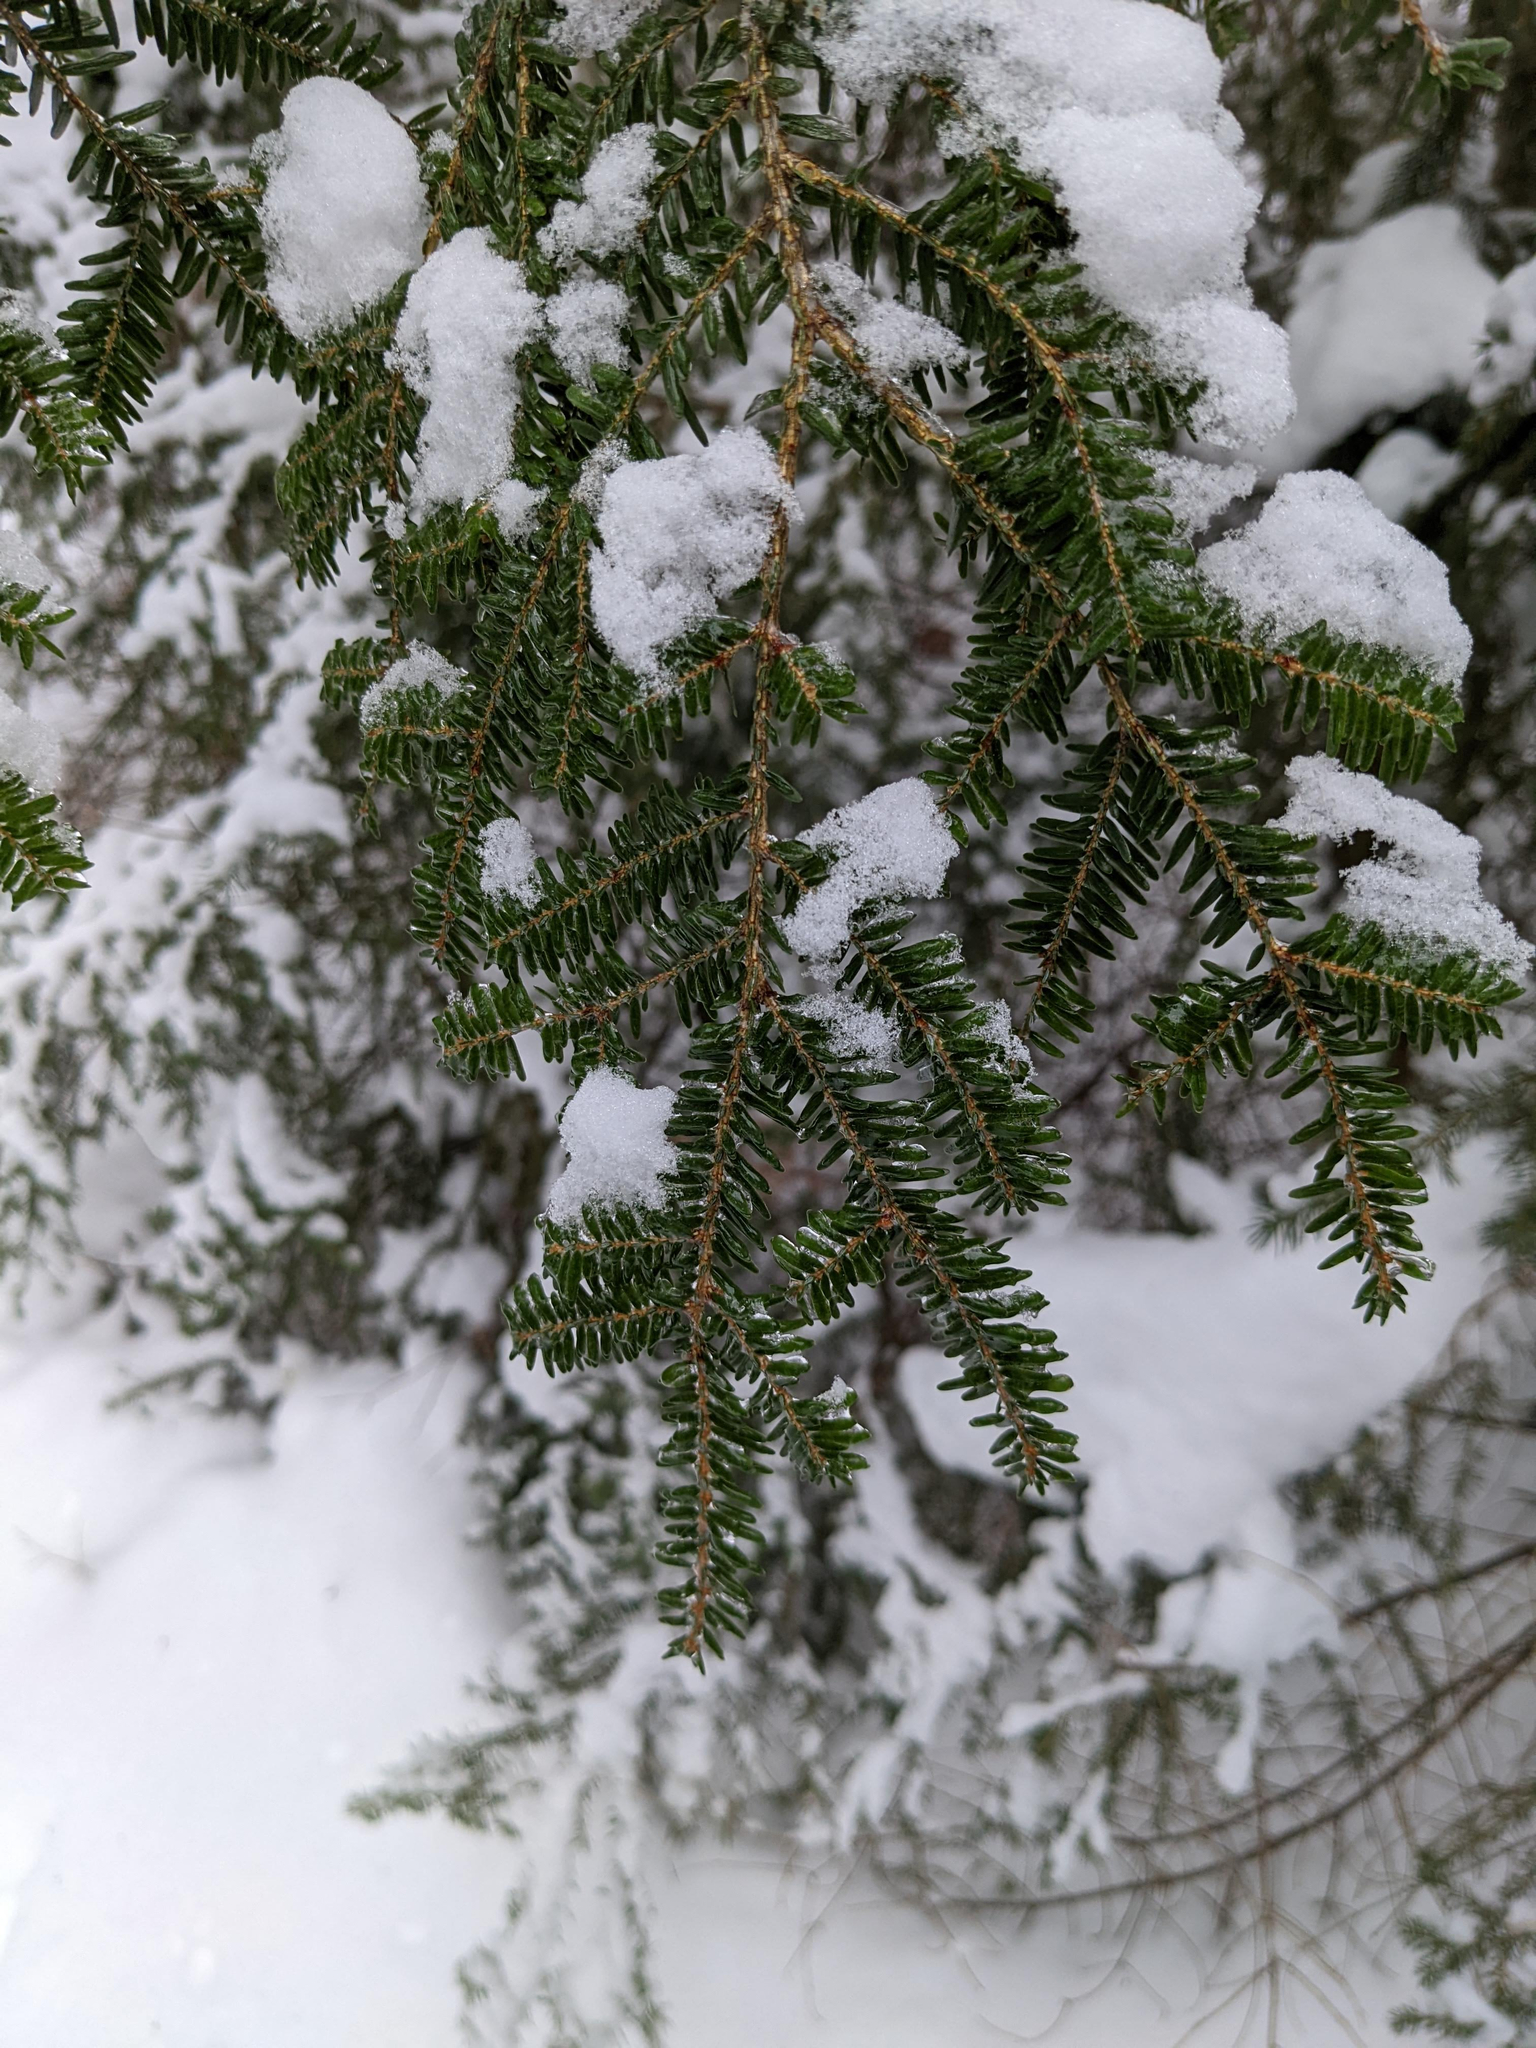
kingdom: Plantae
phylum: Tracheophyta
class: Pinopsida
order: Pinales
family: Pinaceae
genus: Tsuga
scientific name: Tsuga canadensis
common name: Eastern hemlock
